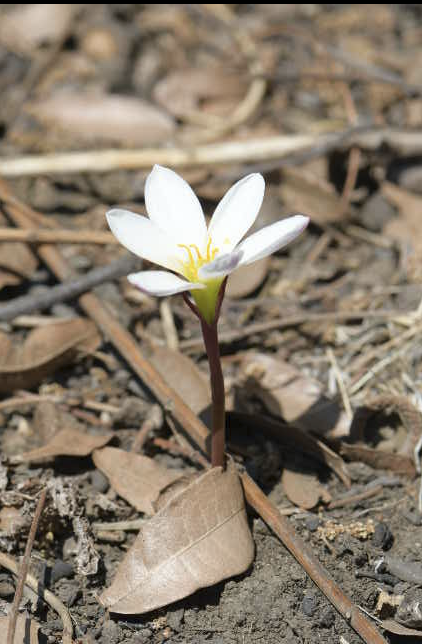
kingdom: Plantae
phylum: Tracheophyta
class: Liliopsida
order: Asparagales
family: Amaryllidaceae
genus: Zephyranthes
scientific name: Zephyranthes minuta
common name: Pink rain lily
